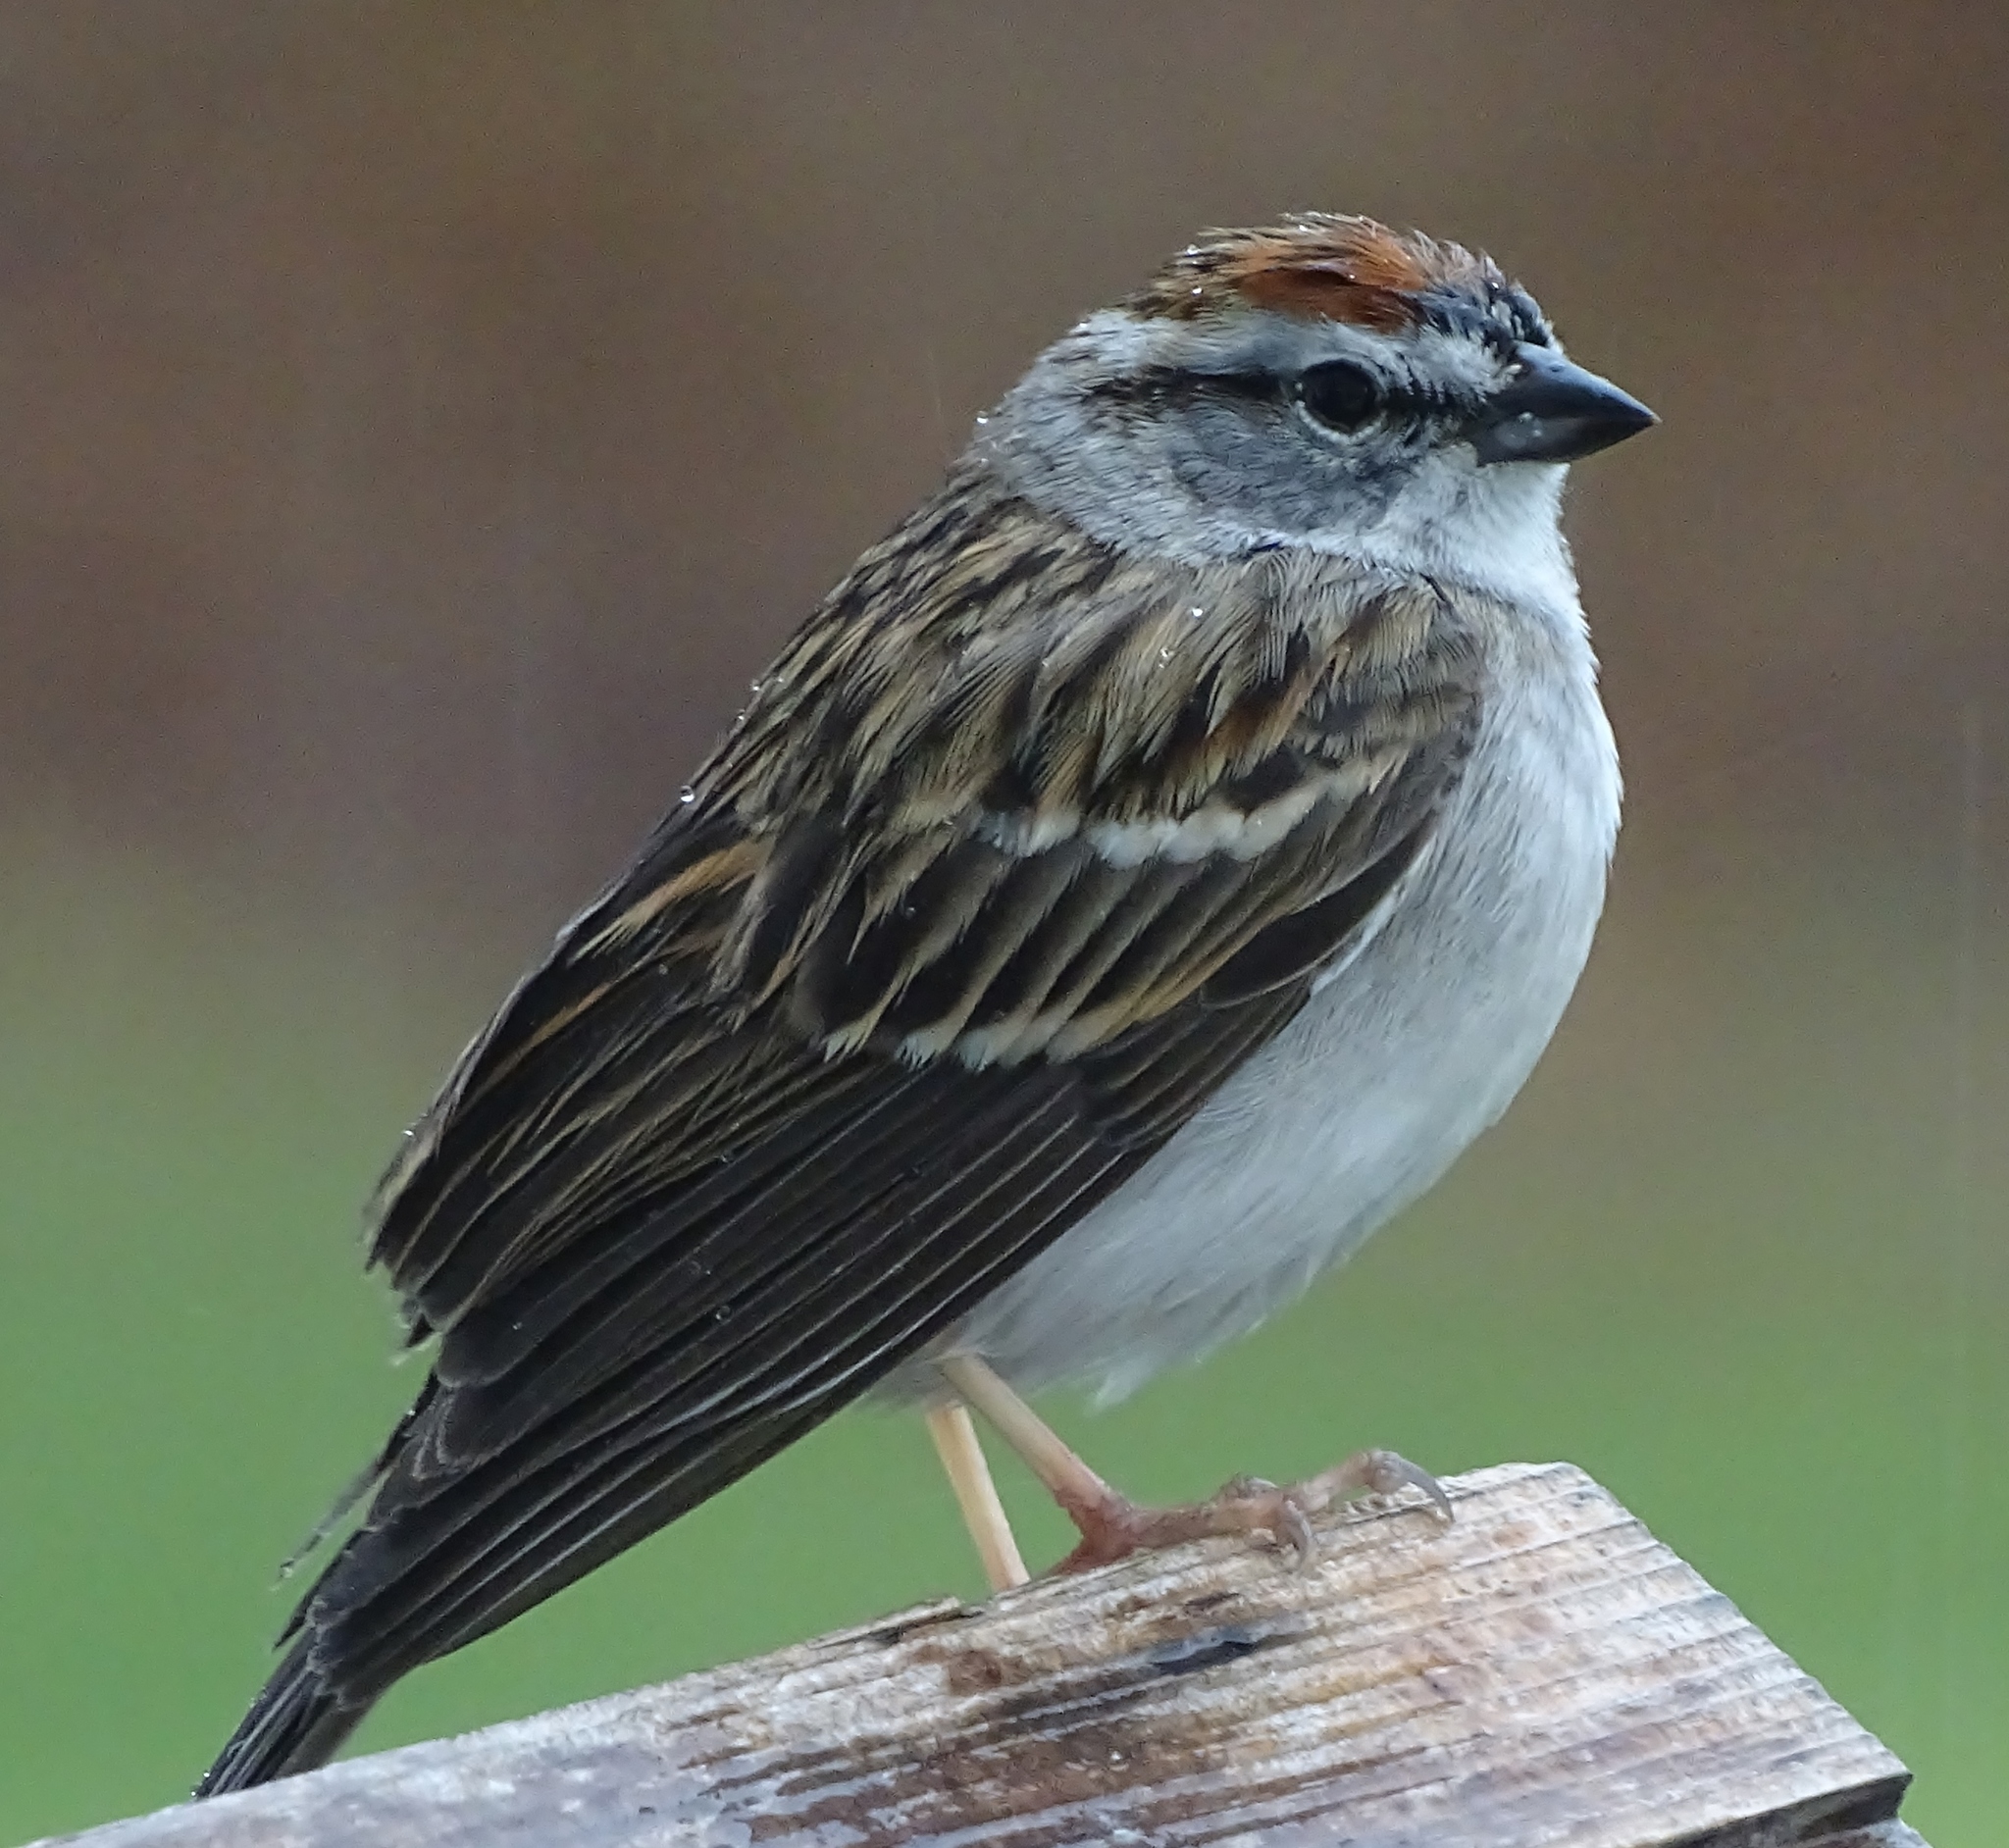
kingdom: Animalia
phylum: Chordata
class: Aves
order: Passeriformes
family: Passerellidae
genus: Spizella
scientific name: Spizella passerina
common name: Chipping sparrow
